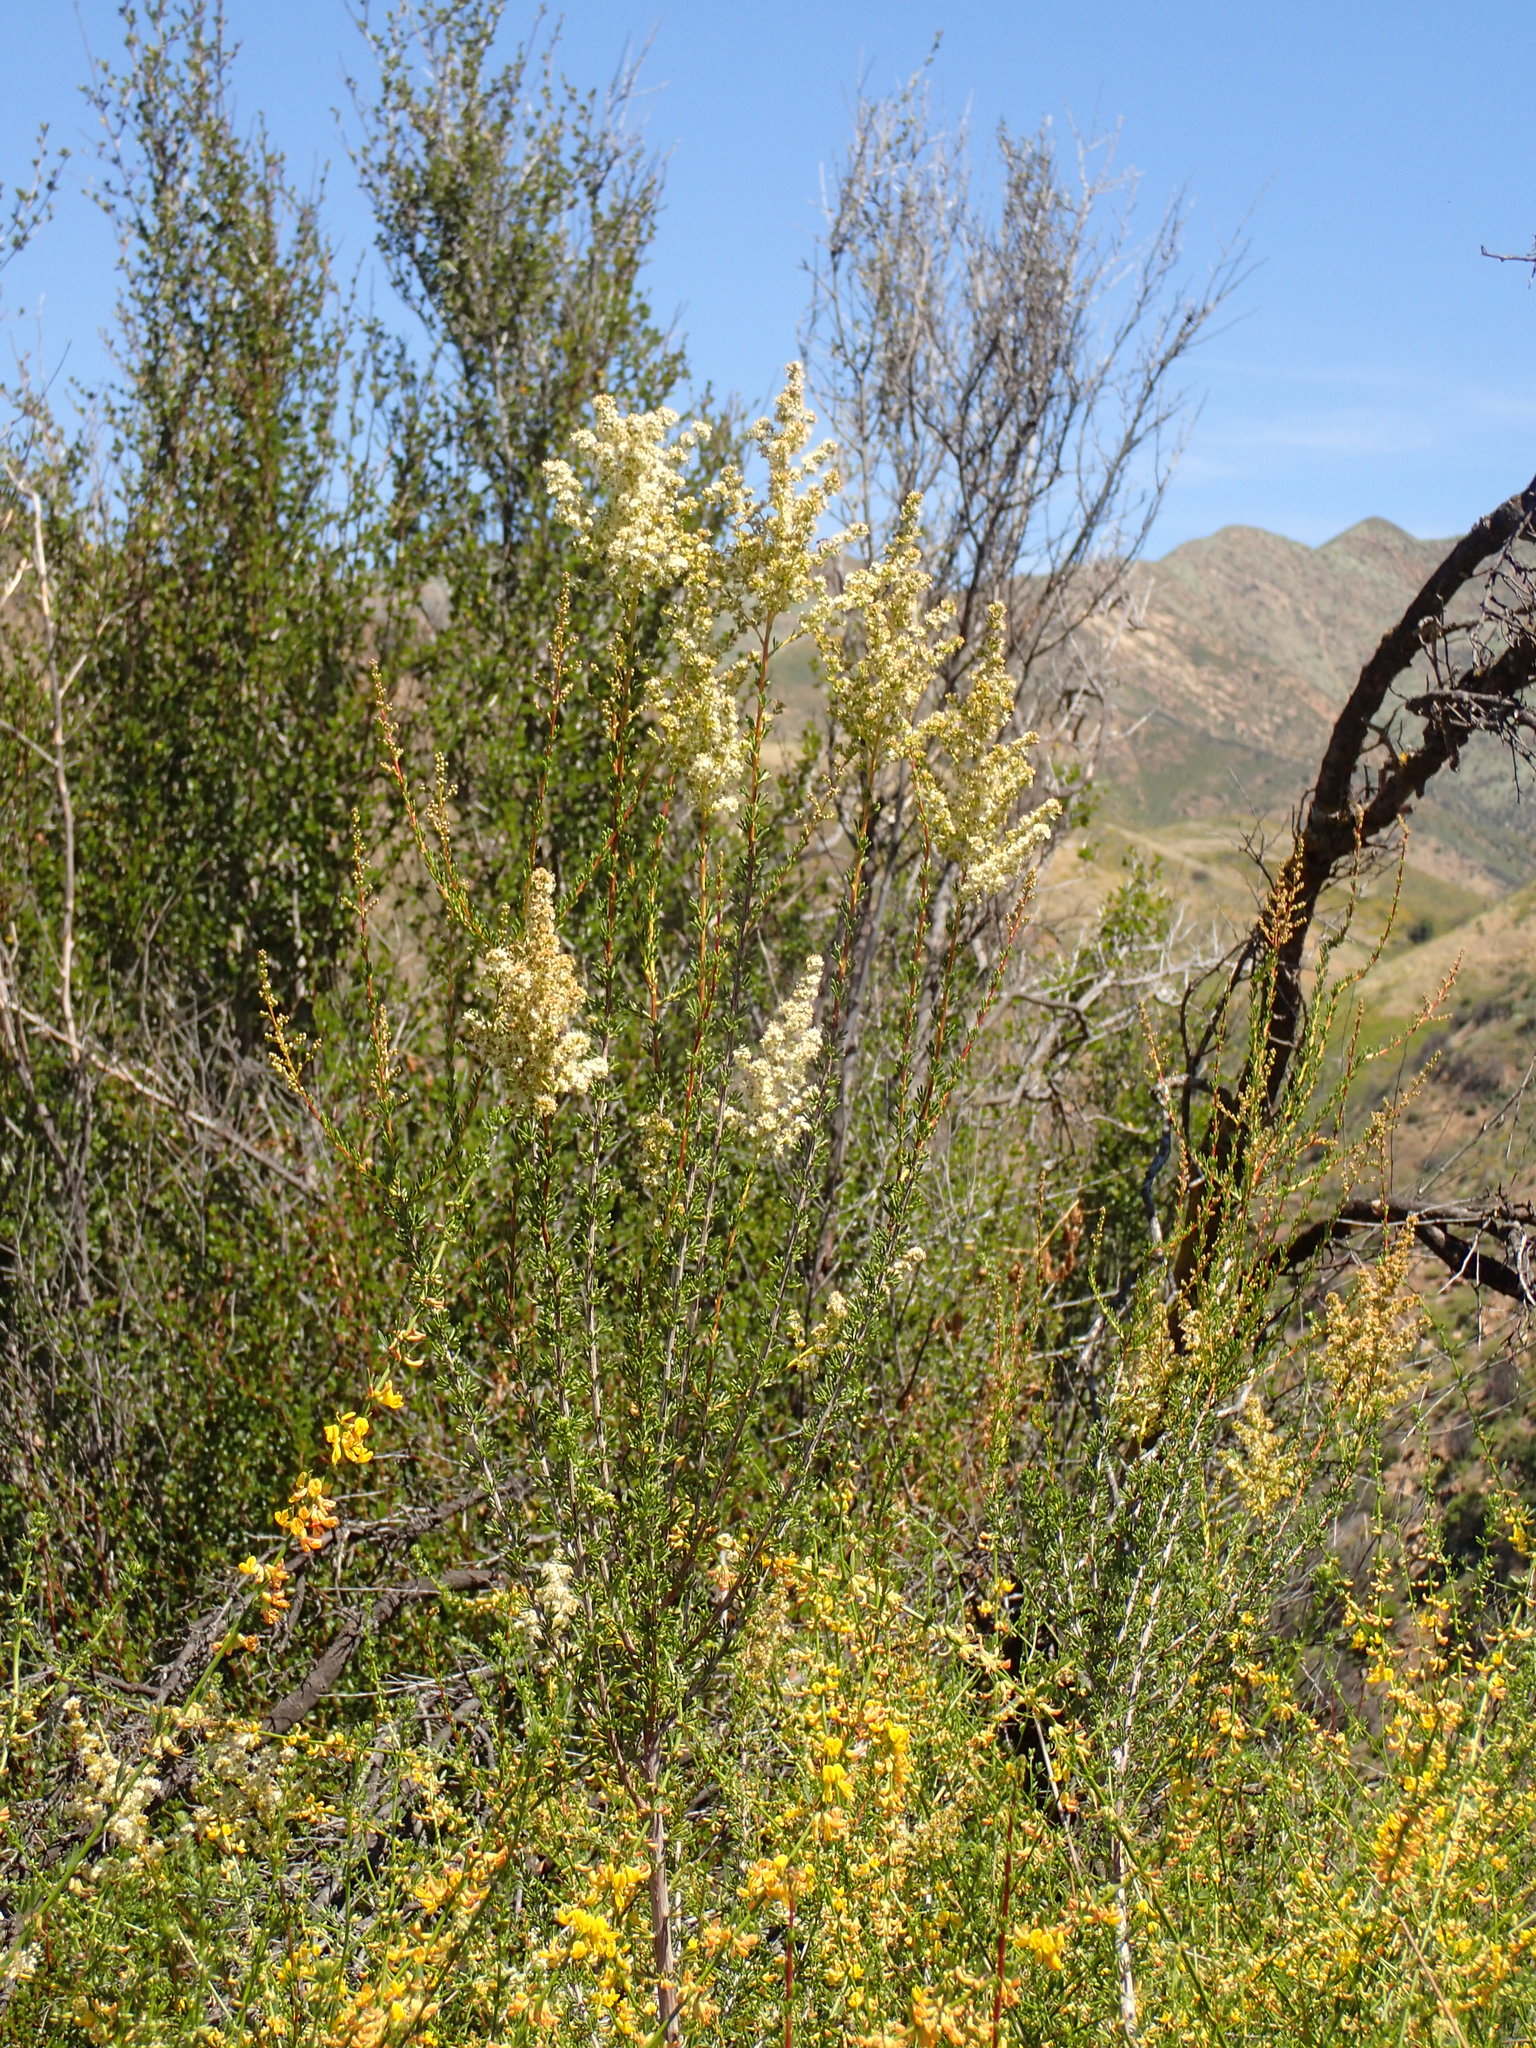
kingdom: Plantae
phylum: Tracheophyta
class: Magnoliopsida
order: Rosales
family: Rosaceae
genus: Adenostoma
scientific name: Adenostoma fasciculatum
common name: Chamise
